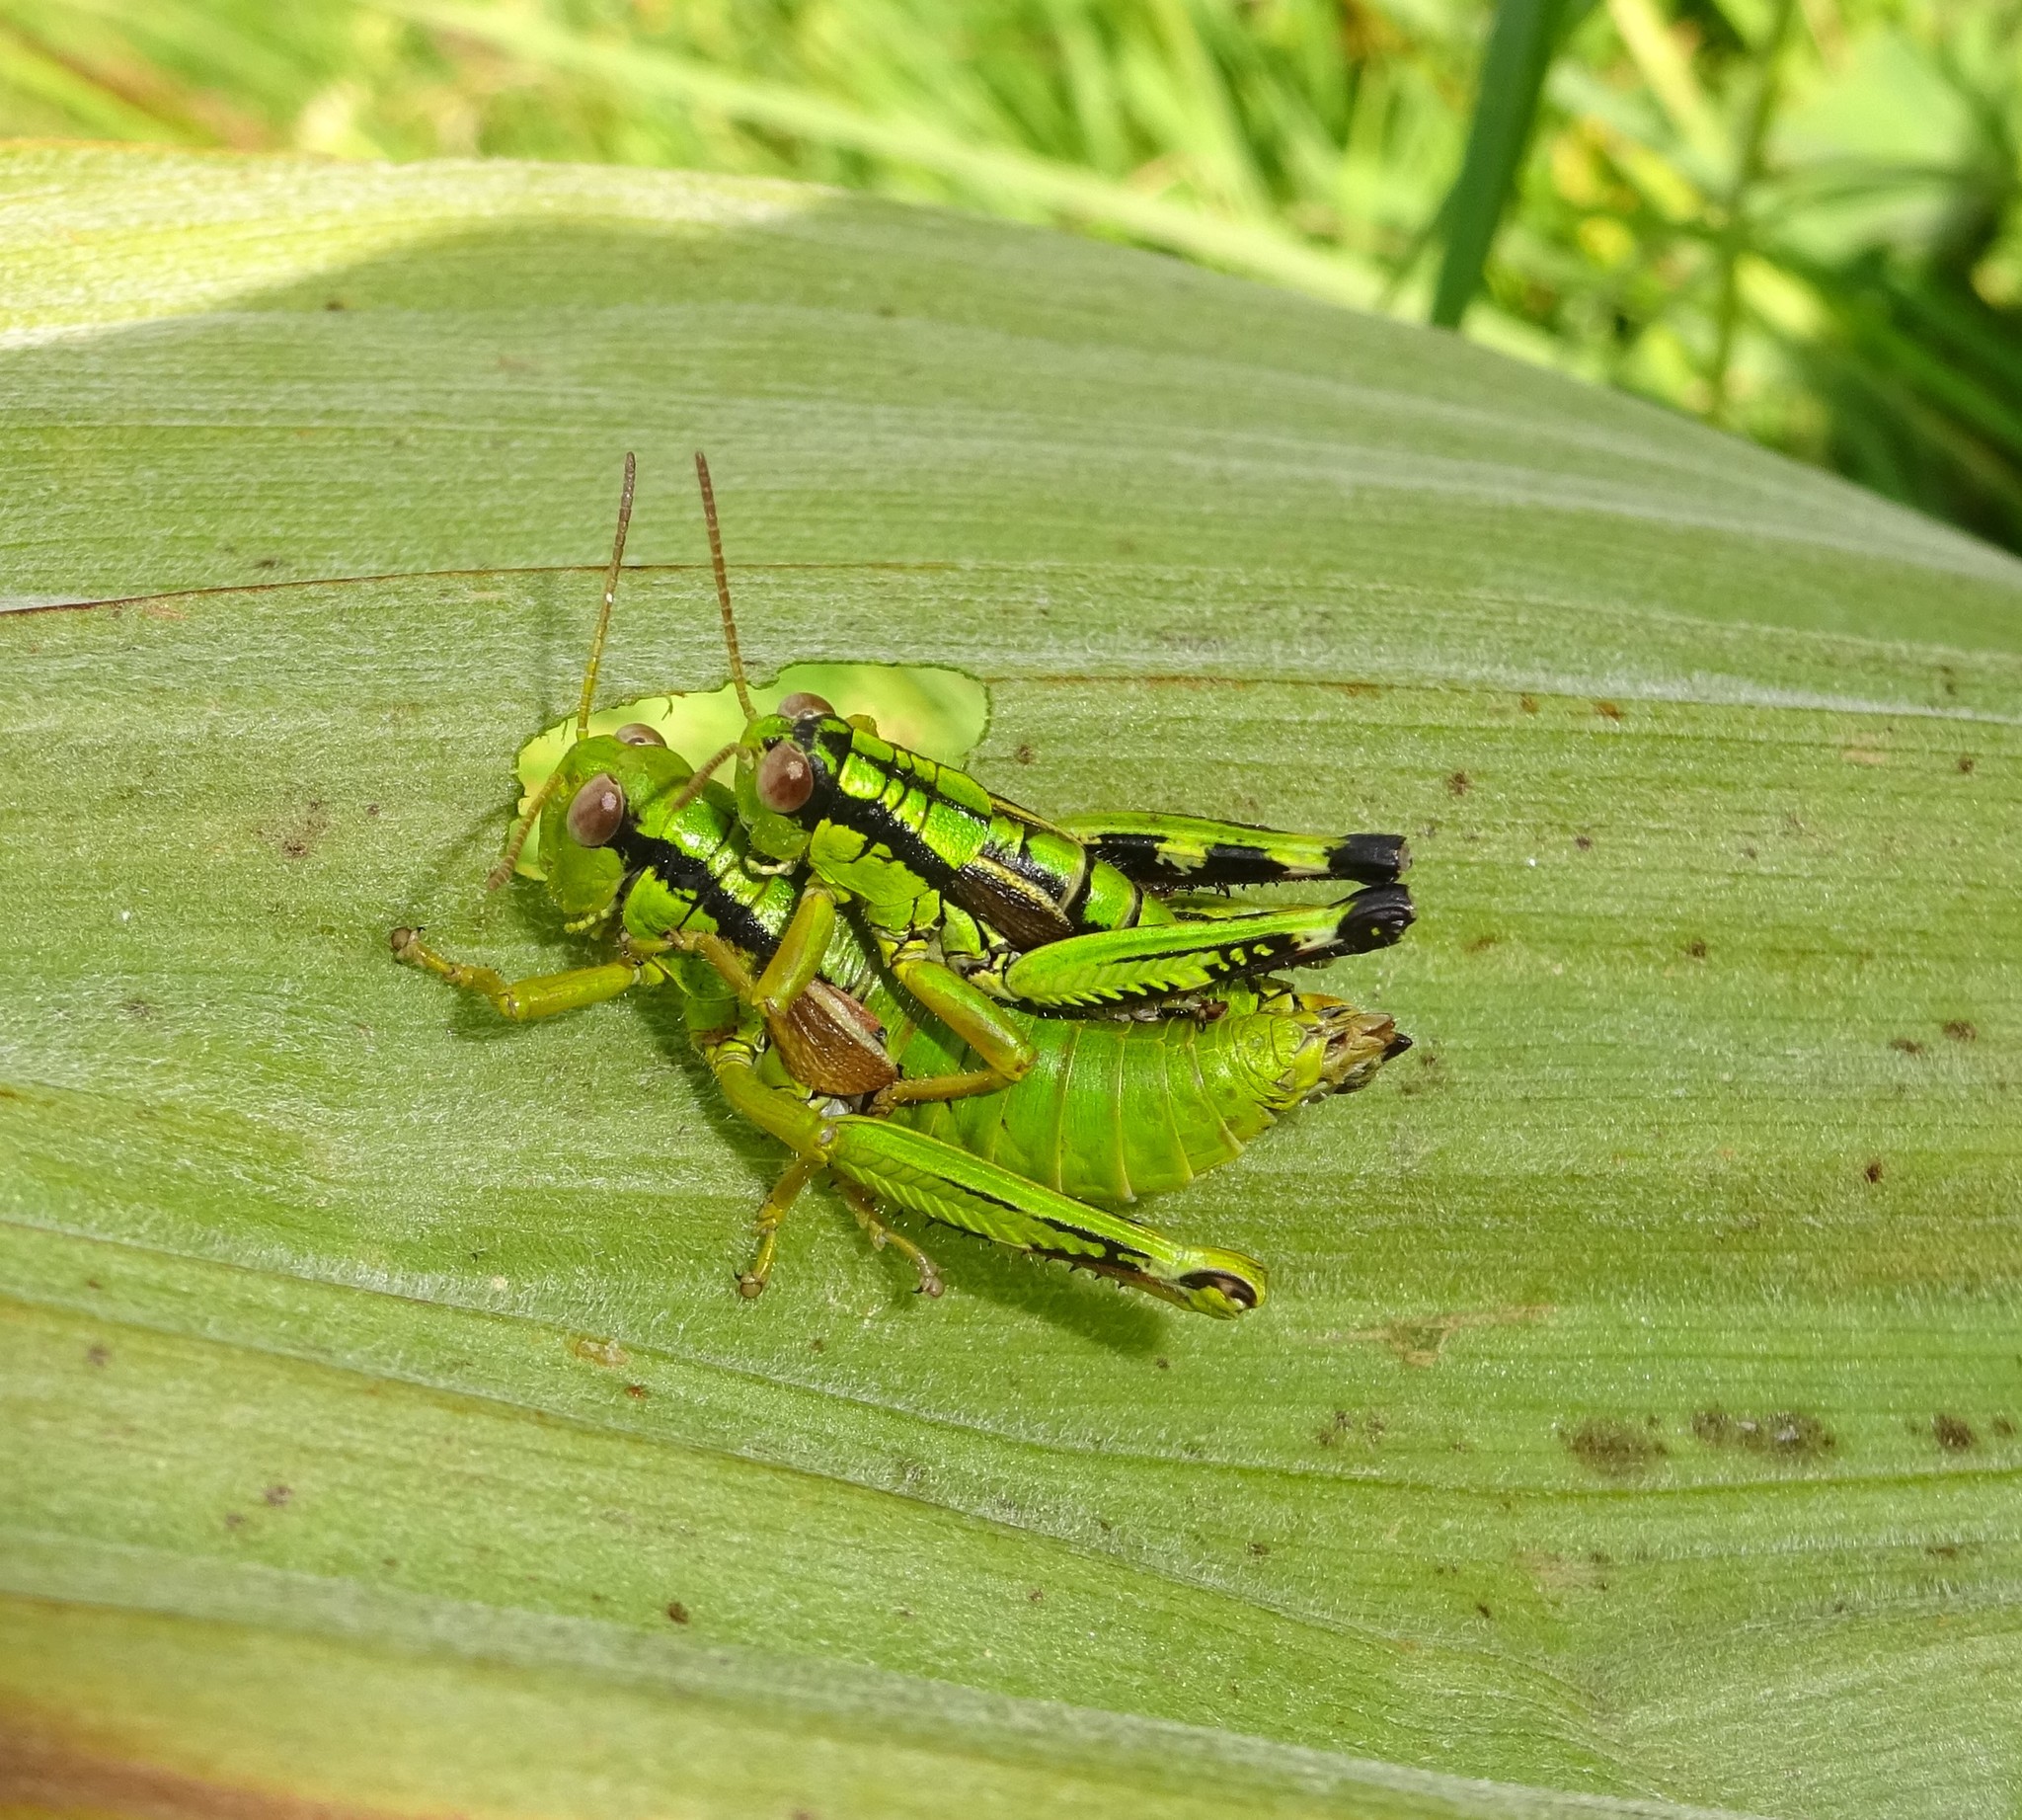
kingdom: Animalia
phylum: Arthropoda
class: Insecta
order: Orthoptera
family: Acrididae
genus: Miramella
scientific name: Miramella alpina
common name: Green mountain grasshopper
